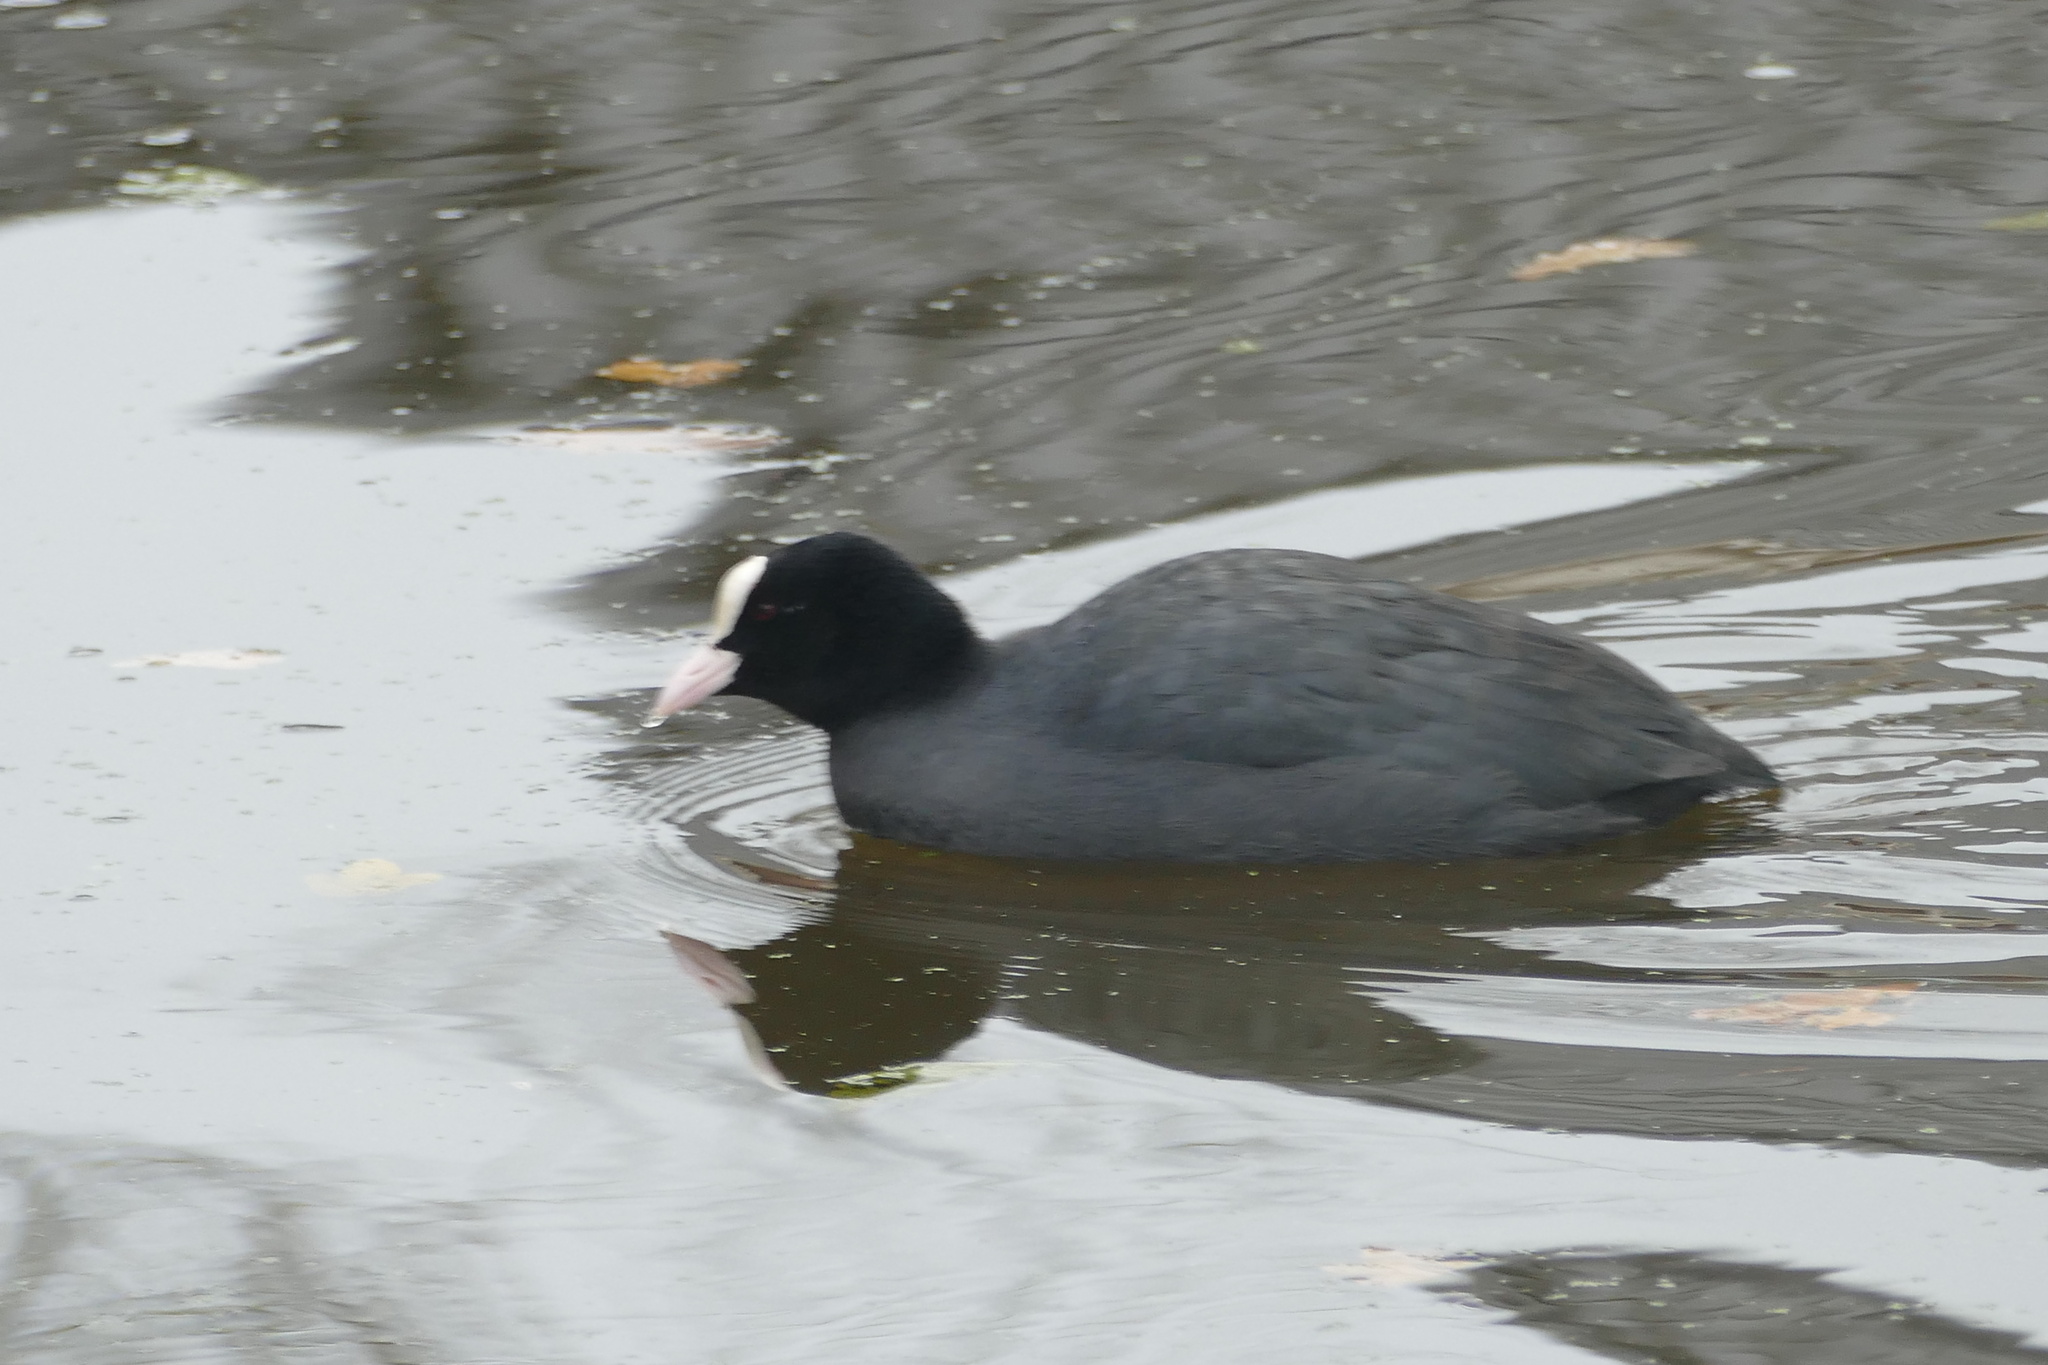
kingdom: Animalia
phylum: Chordata
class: Aves
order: Gruiformes
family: Rallidae
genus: Fulica
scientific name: Fulica atra
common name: Eurasian coot
